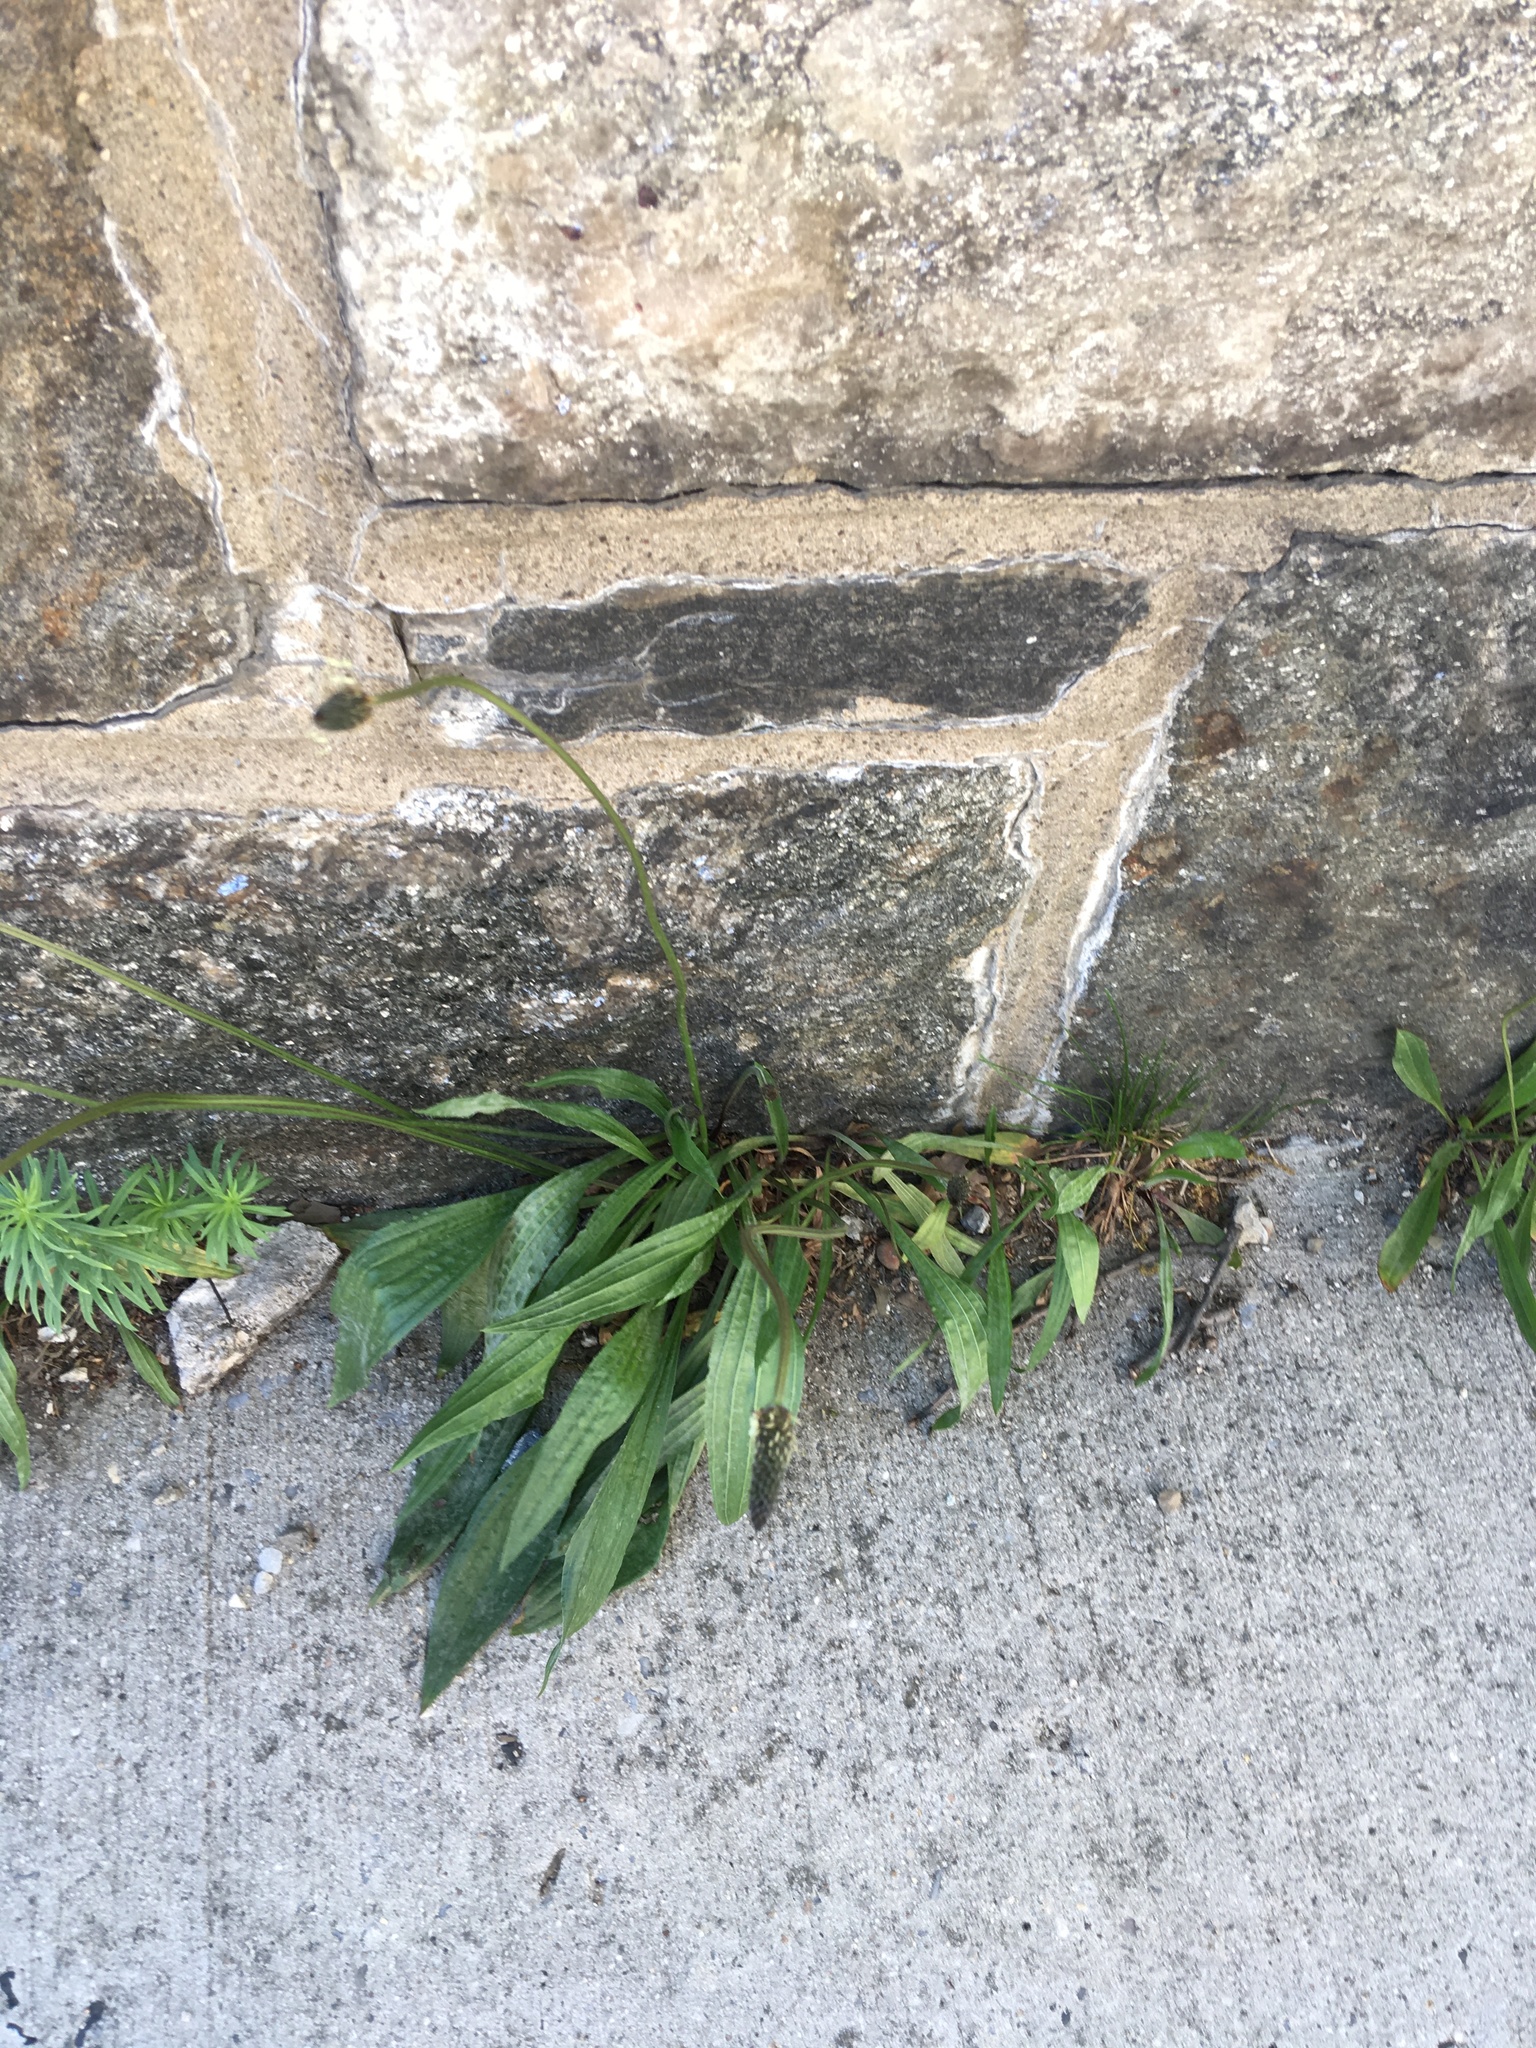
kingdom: Plantae
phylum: Tracheophyta
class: Magnoliopsida
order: Lamiales
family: Plantaginaceae
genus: Plantago
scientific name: Plantago lanceolata
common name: Ribwort plantain
